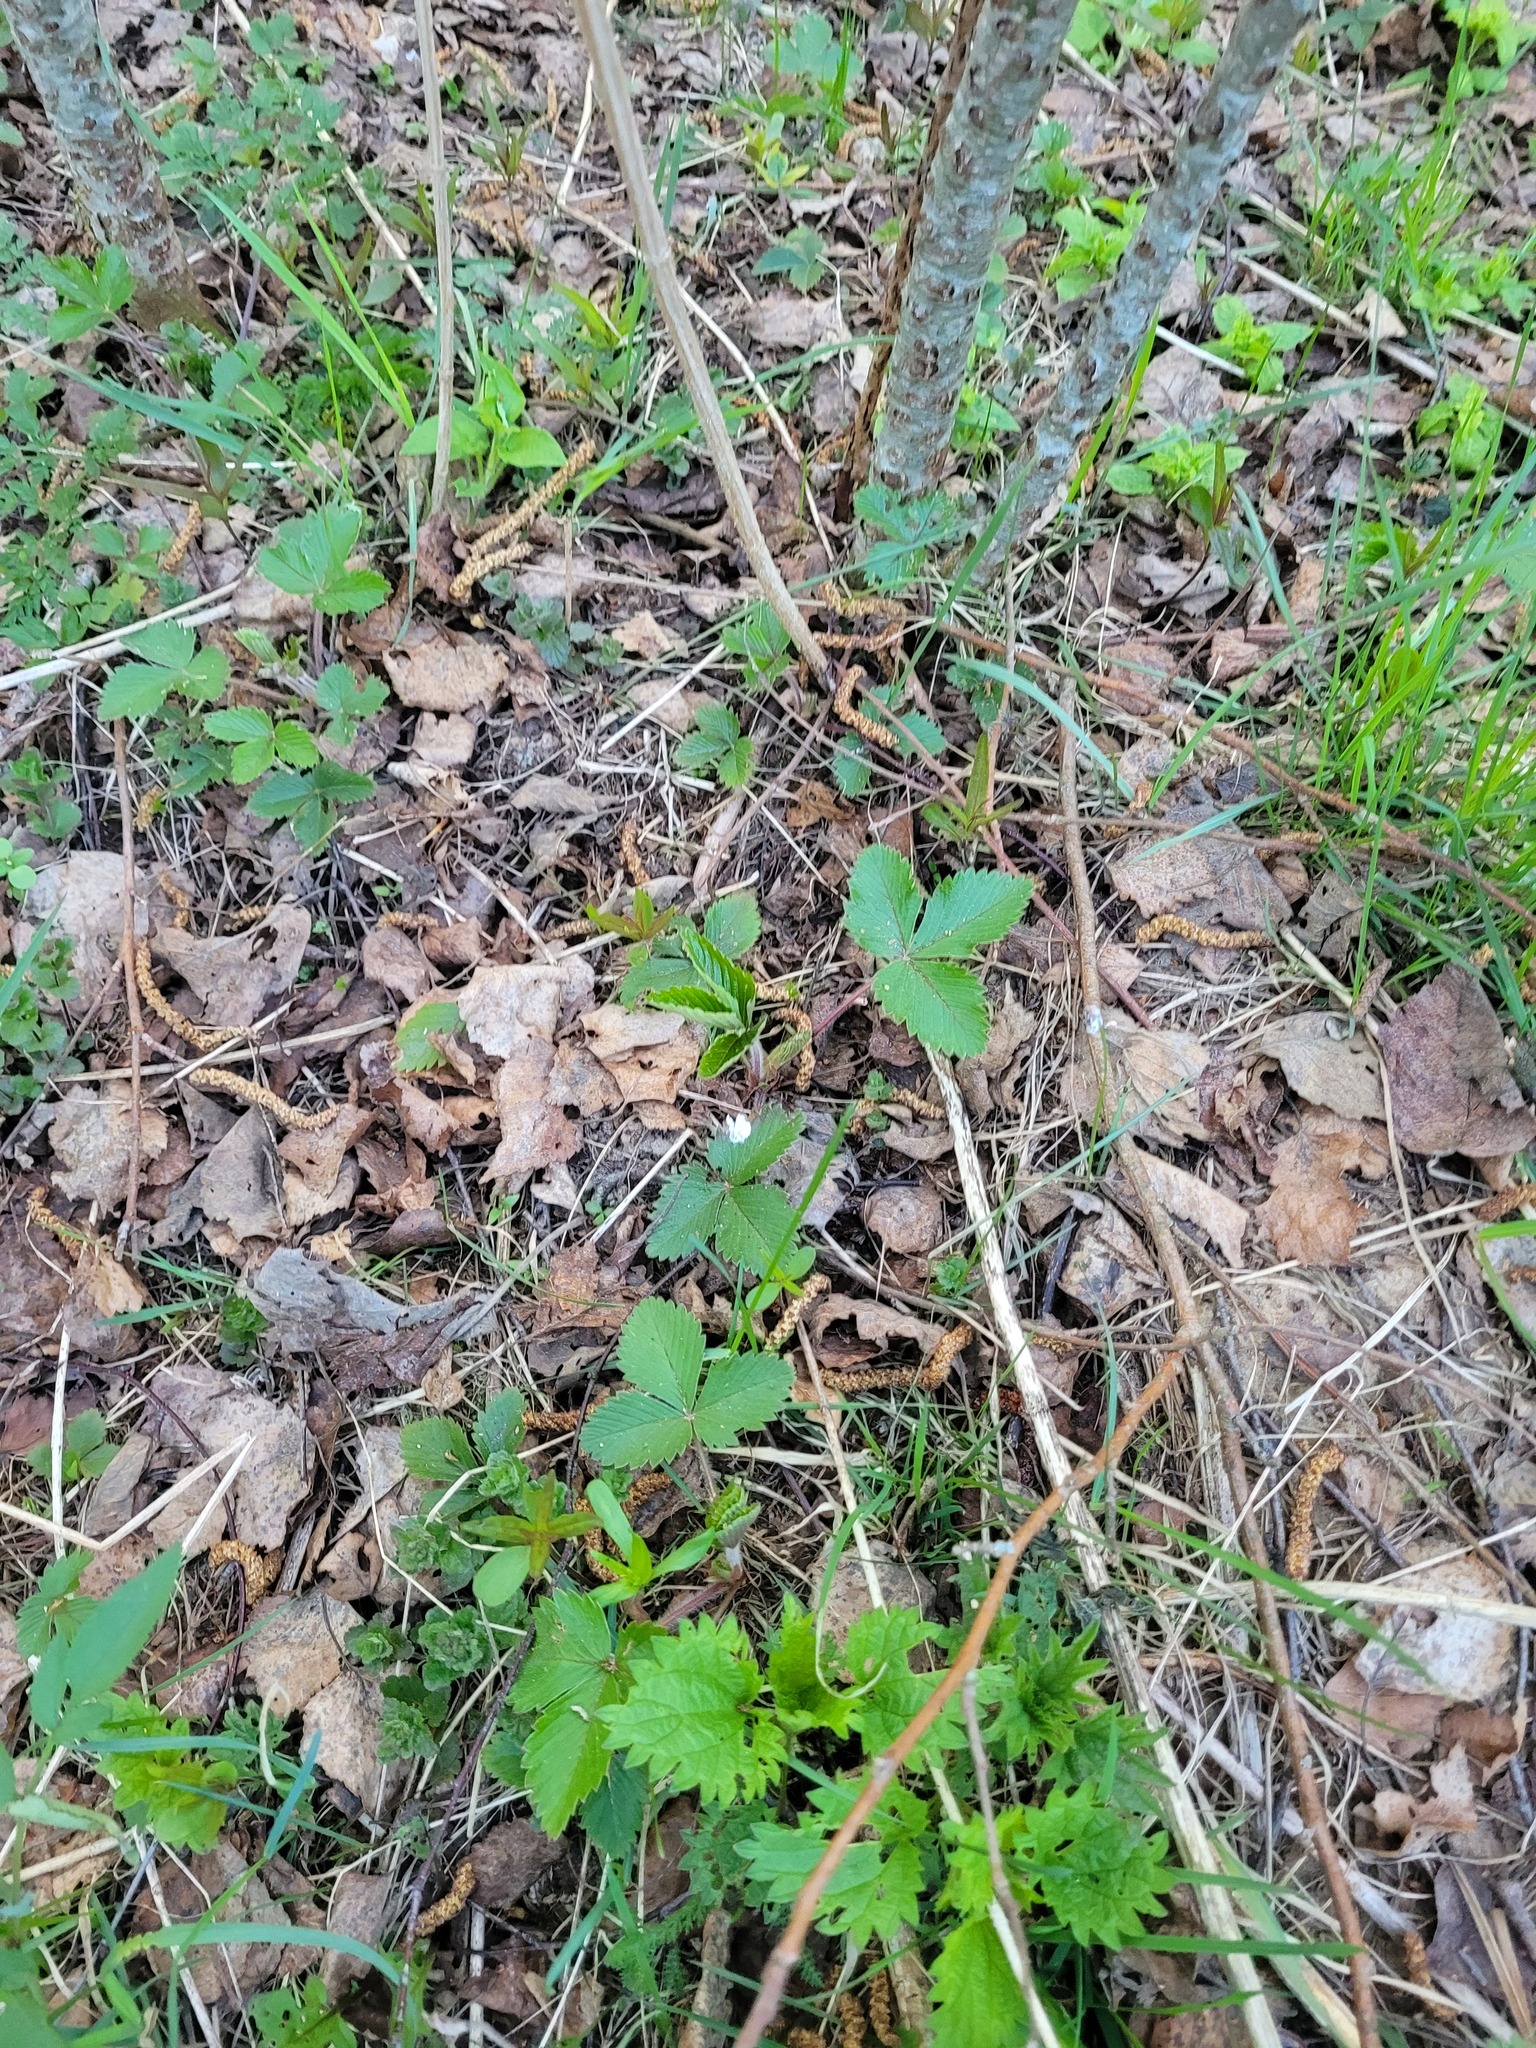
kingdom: Plantae
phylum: Tracheophyta
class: Magnoliopsida
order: Rosales
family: Rosaceae
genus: Fragaria
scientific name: Fragaria vesca
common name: Wild strawberry
